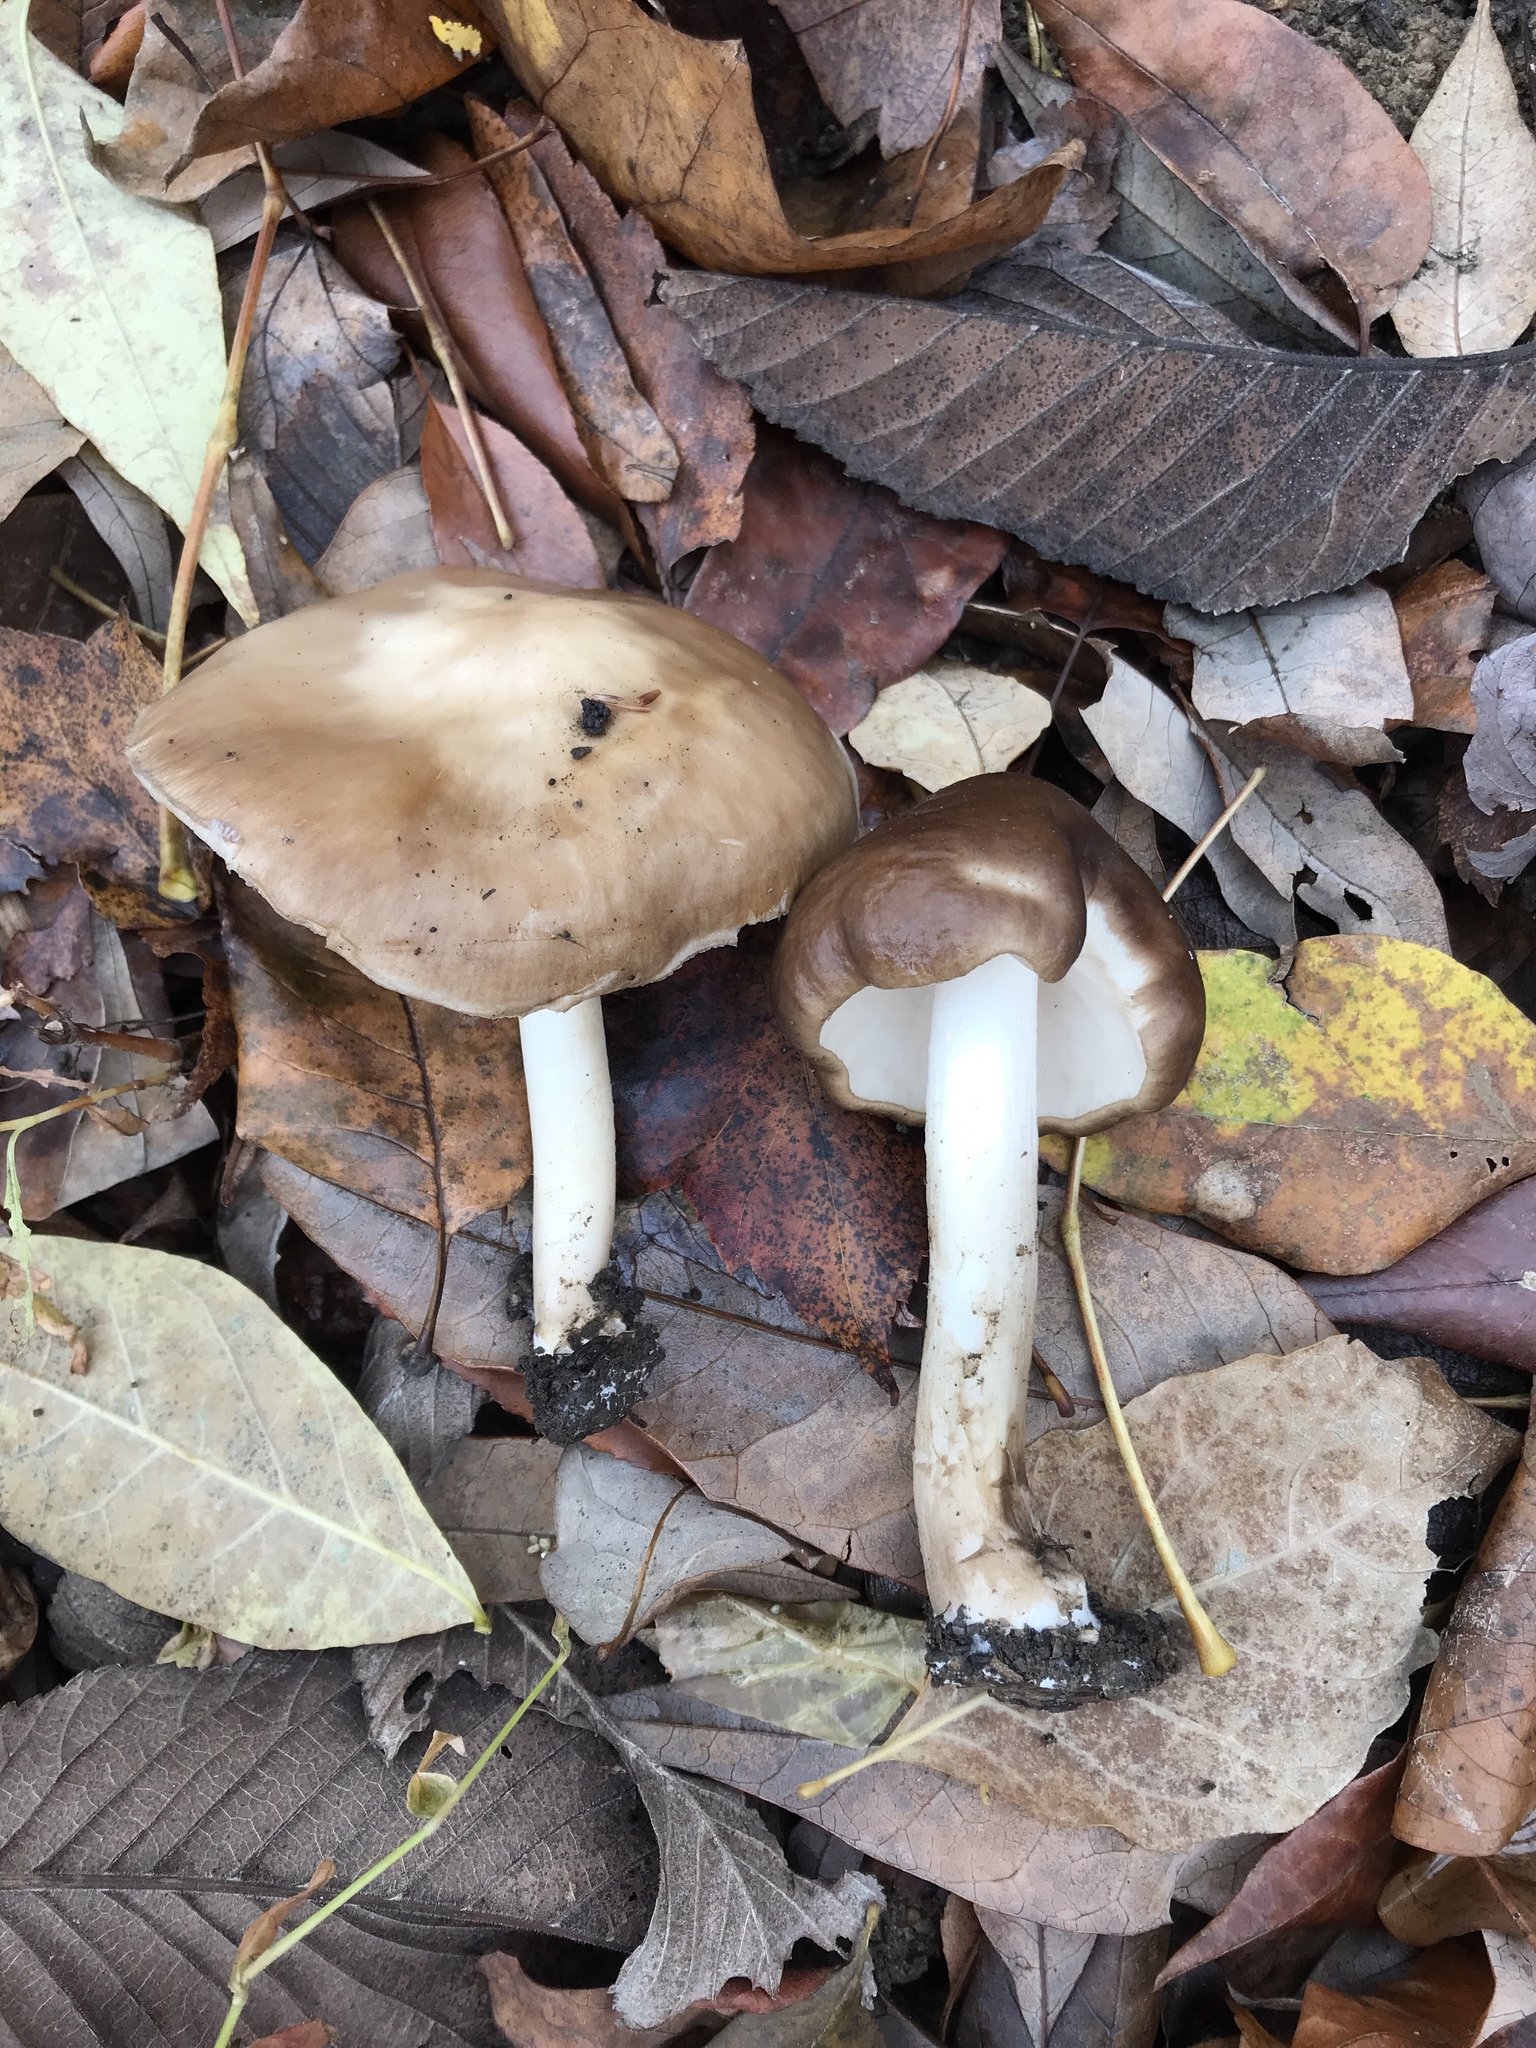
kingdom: Fungi
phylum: Basidiomycota
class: Agaricomycetes
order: Agaricales
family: Pluteaceae
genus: Pluteus
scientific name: Pluteus cervinus
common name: Deer shield
